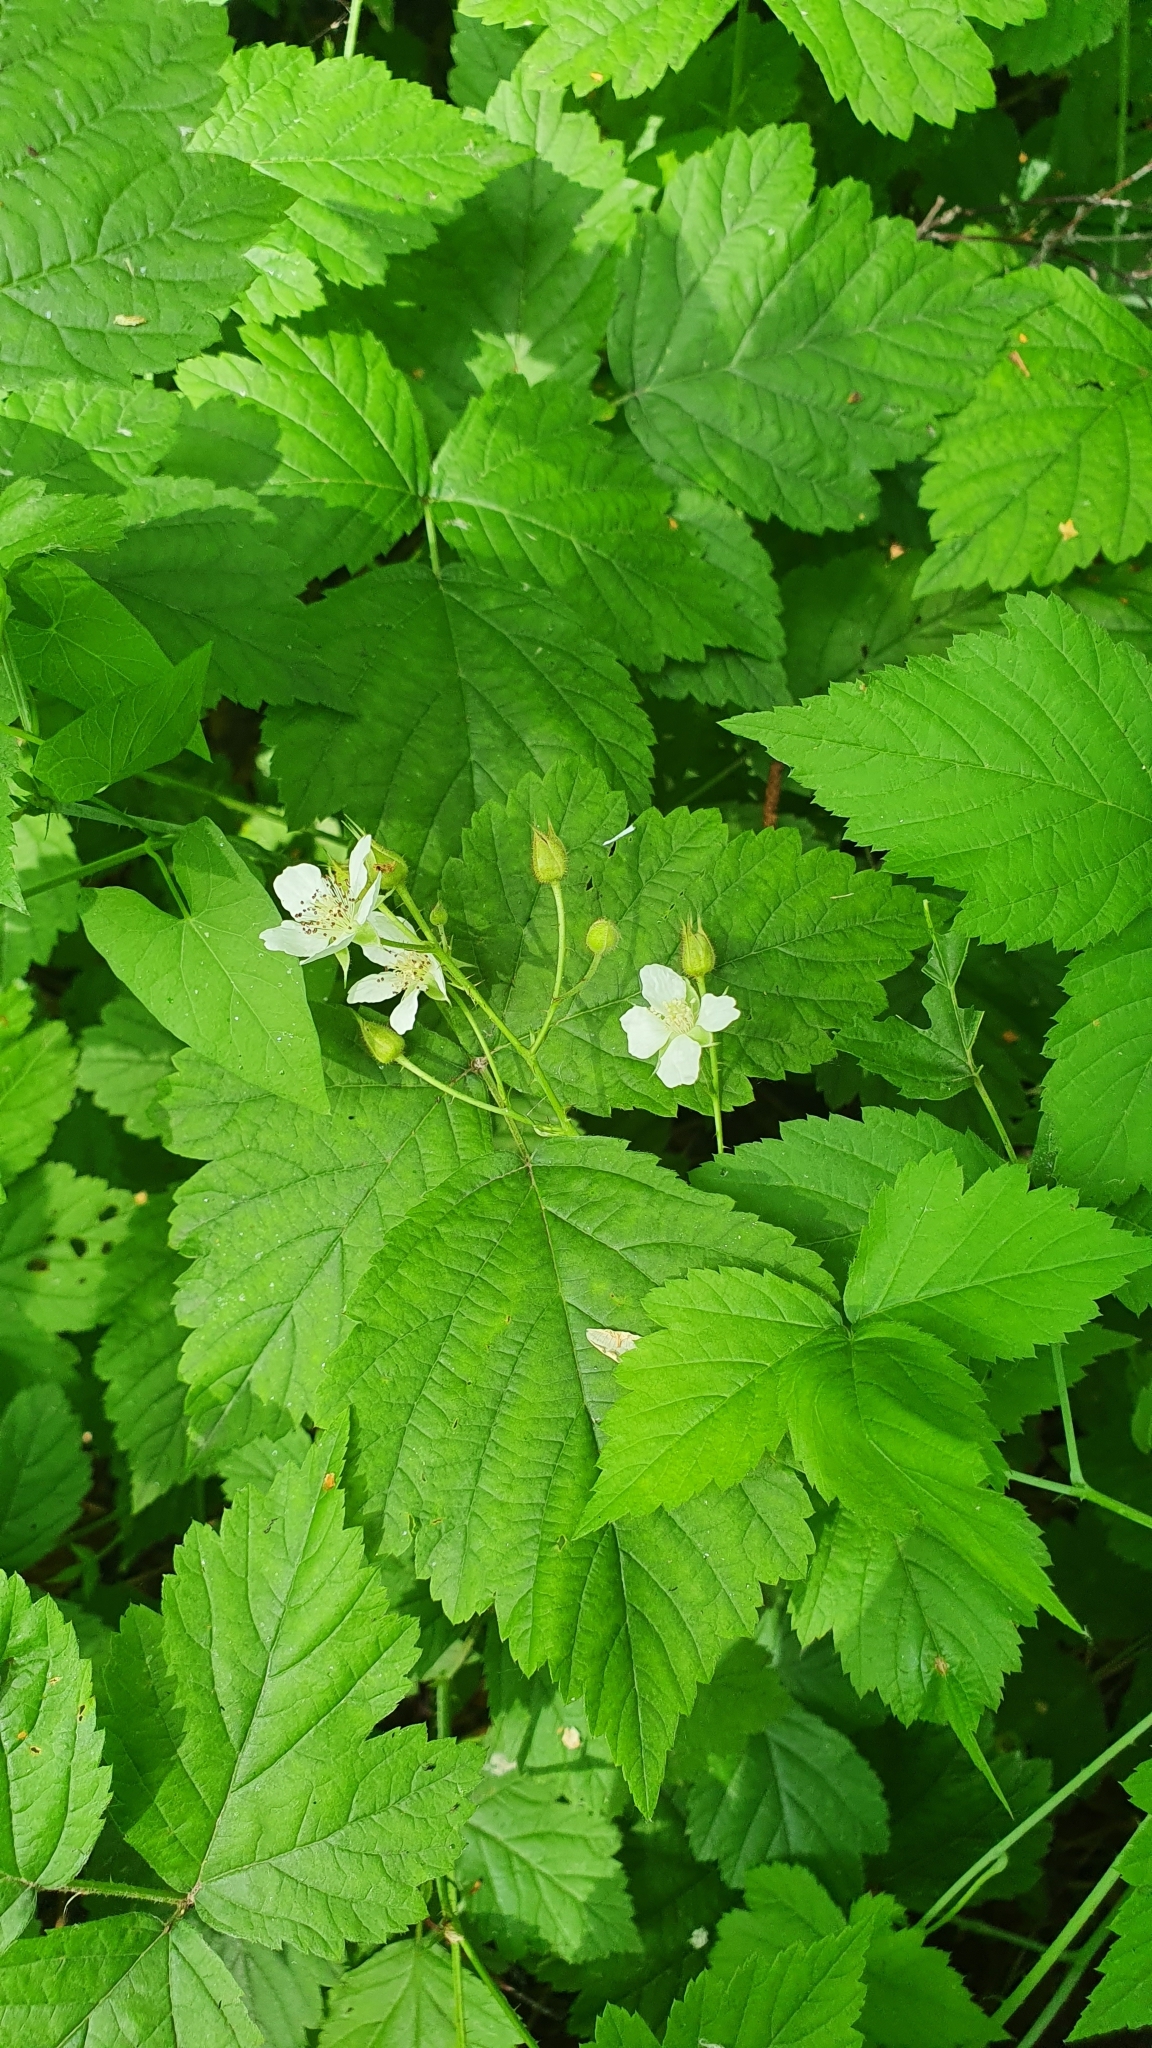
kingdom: Plantae
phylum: Tracheophyta
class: Magnoliopsida
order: Rosales
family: Rosaceae
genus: Rubus
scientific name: Rubus caesius
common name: Dewberry
